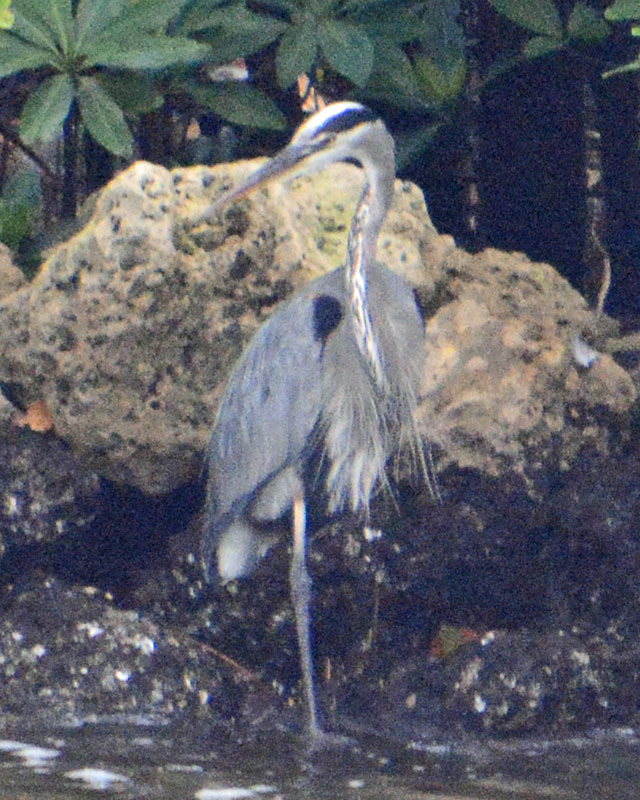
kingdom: Animalia
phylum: Chordata
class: Aves
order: Pelecaniformes
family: Ardeidae
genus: Ardea
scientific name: Ardea herodias
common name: Great blue heron
